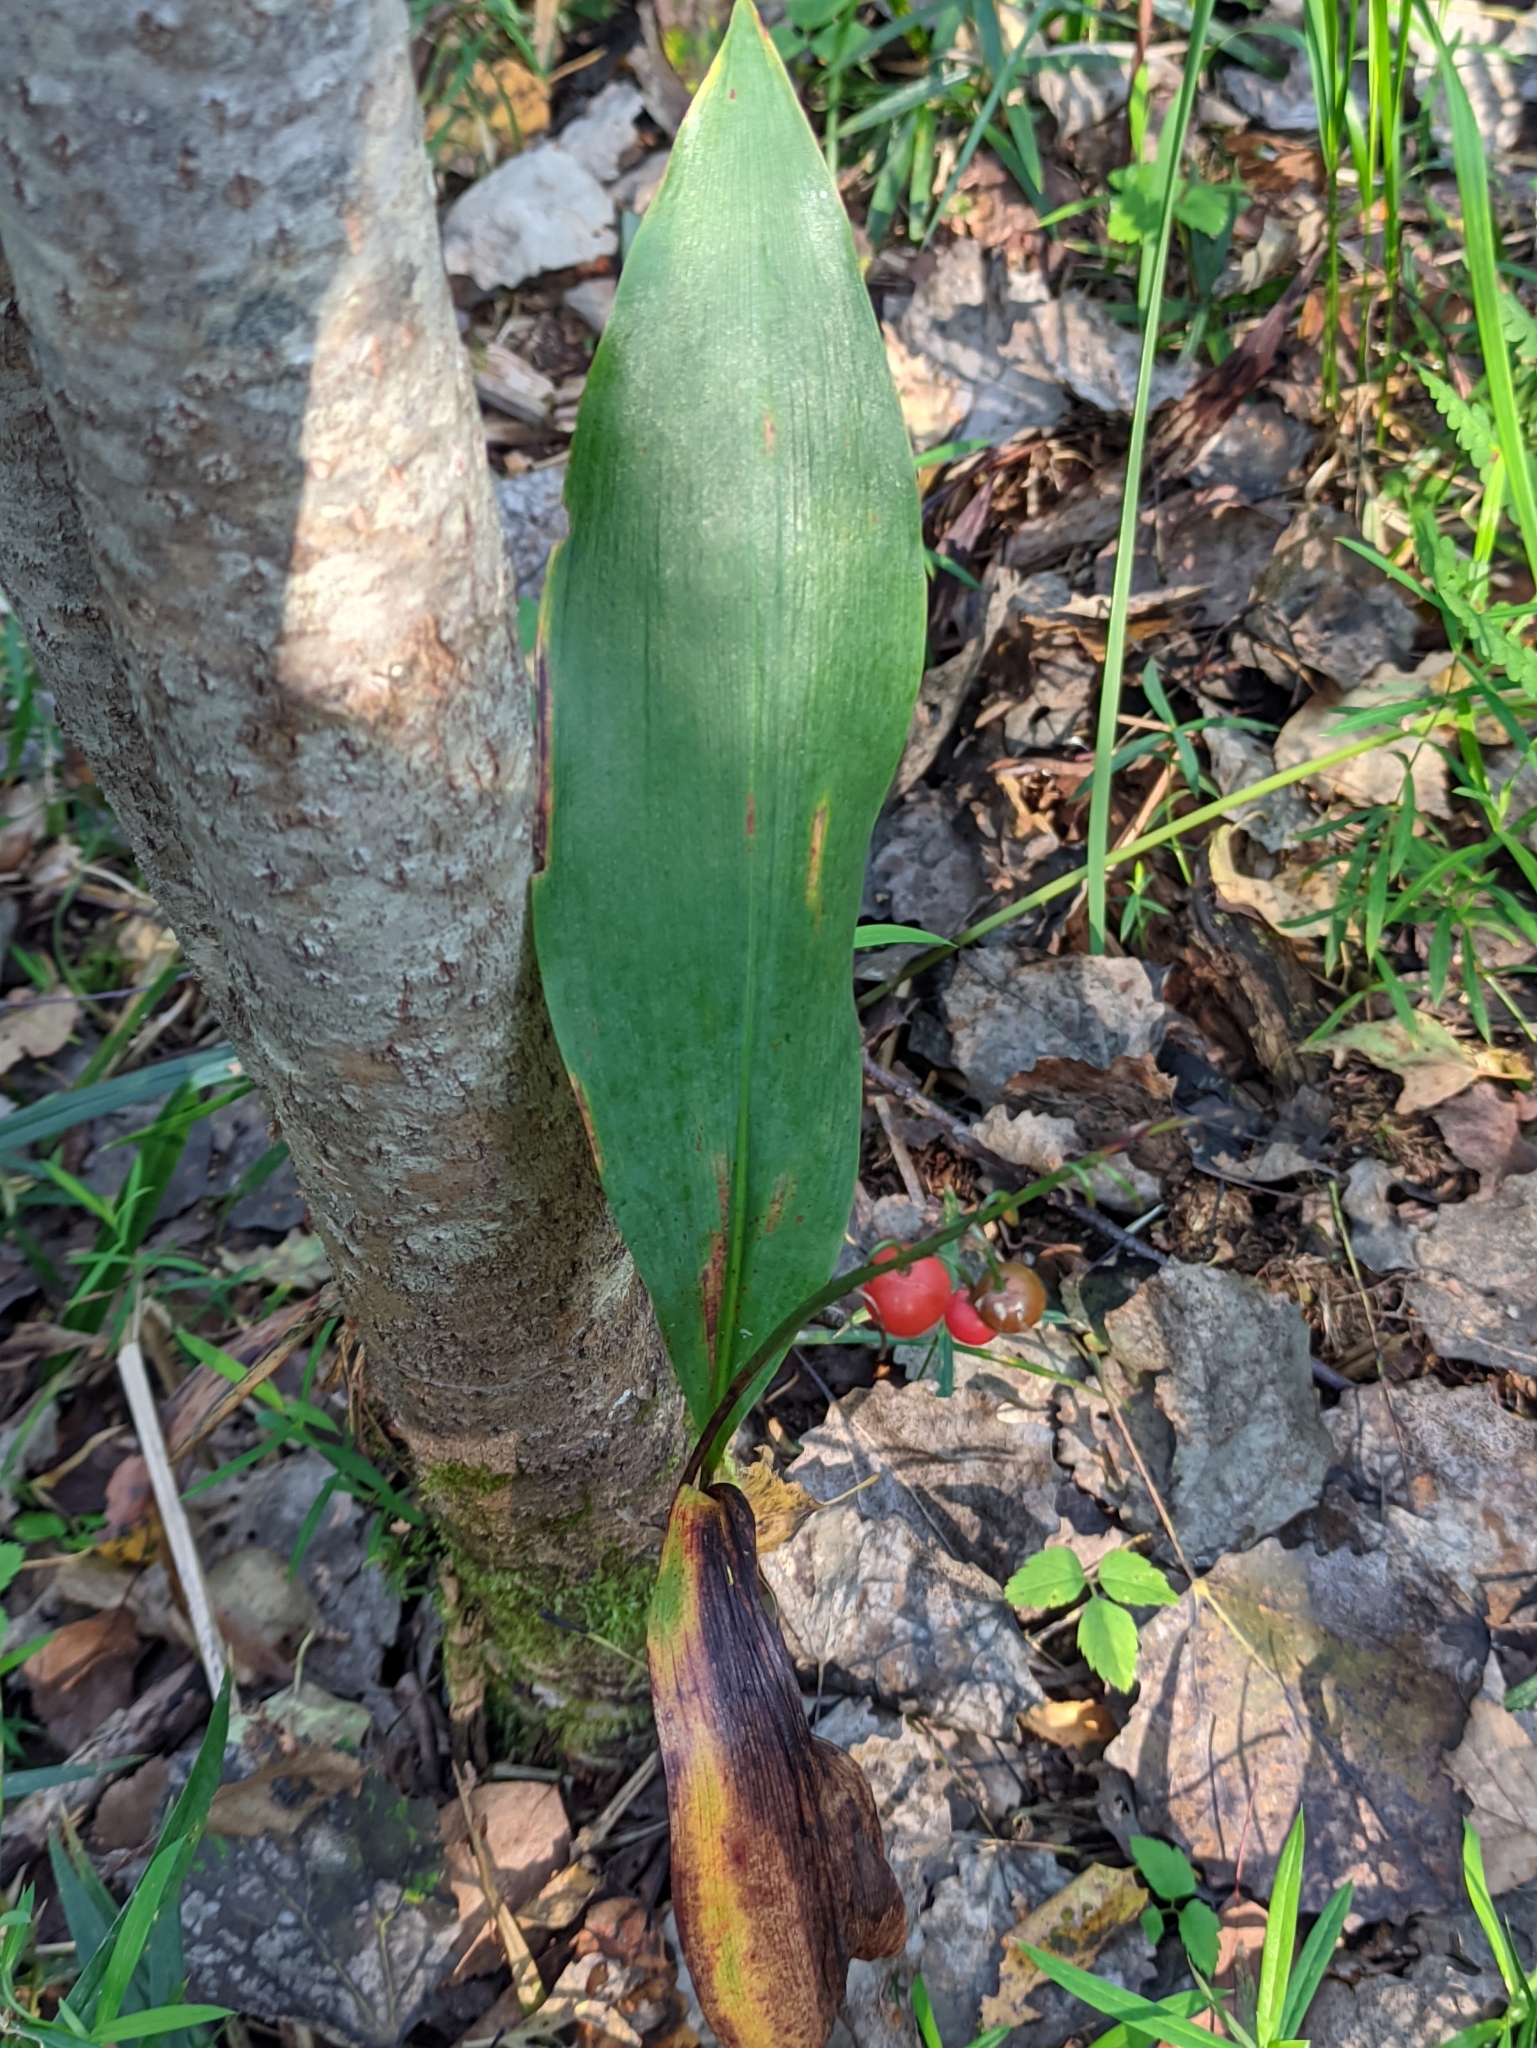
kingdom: Plantae
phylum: Tracheophyta
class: Liliopsida
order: Asparagales
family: Asparagaceae
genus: Convallaria
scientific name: Convallaria majalis
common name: Lily-of-the-valley
